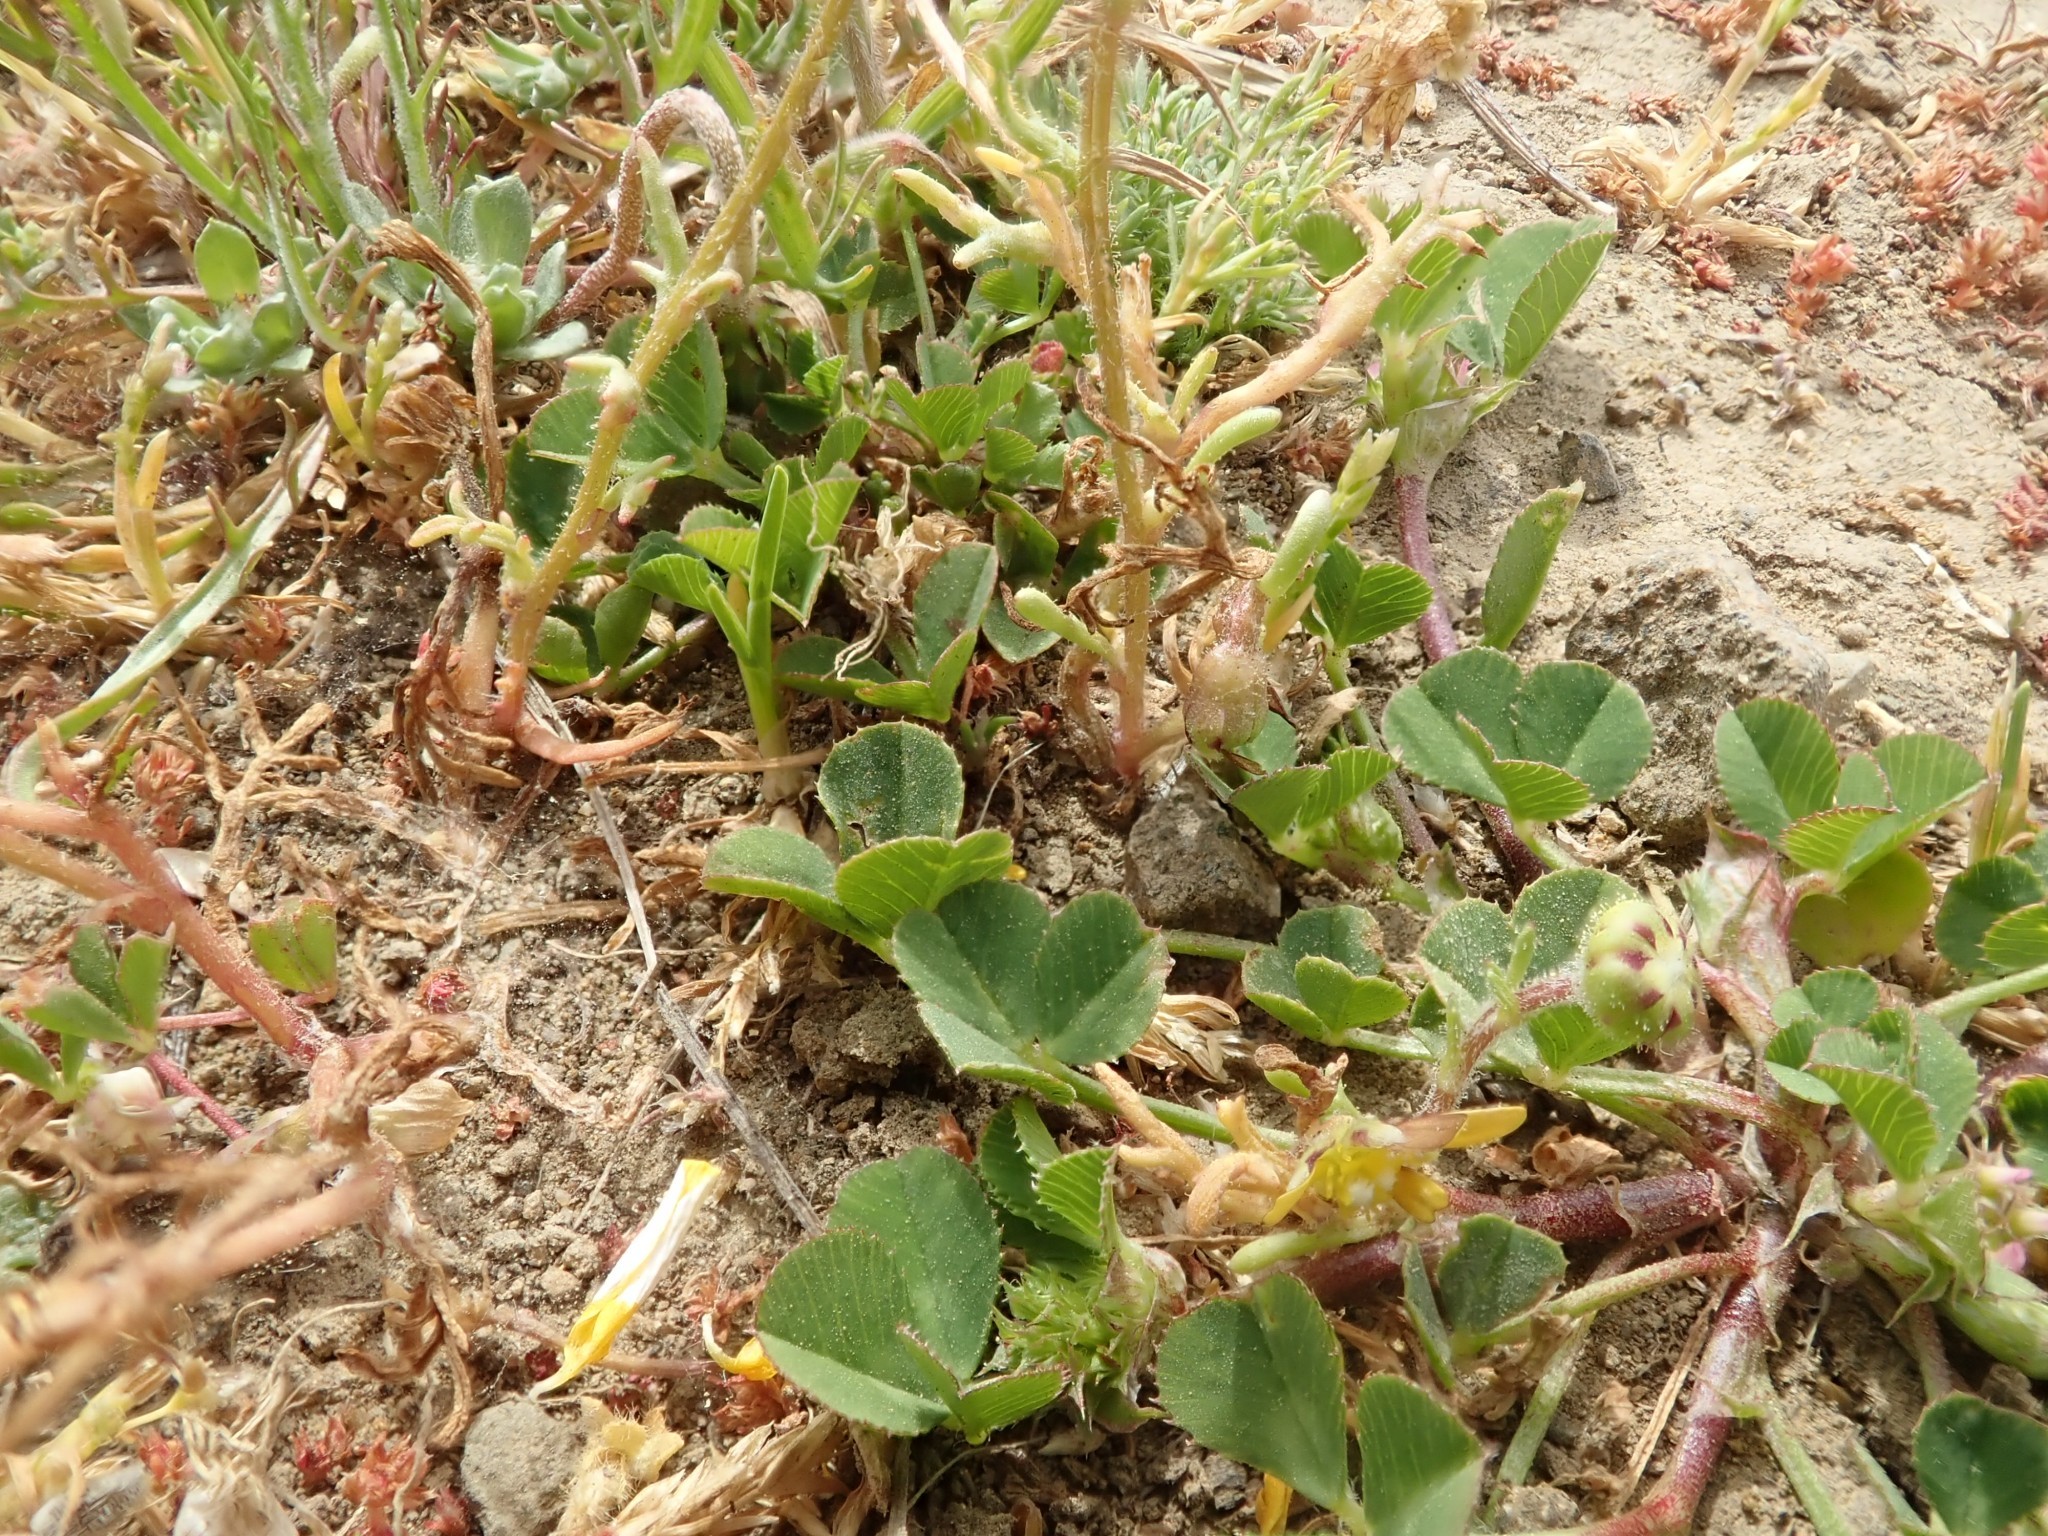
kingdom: Plantae
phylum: Tracheophyta
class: Magnoliopsida
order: Asterales
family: Asteraceae
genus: Blennosperma
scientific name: Blennosperma nanum
